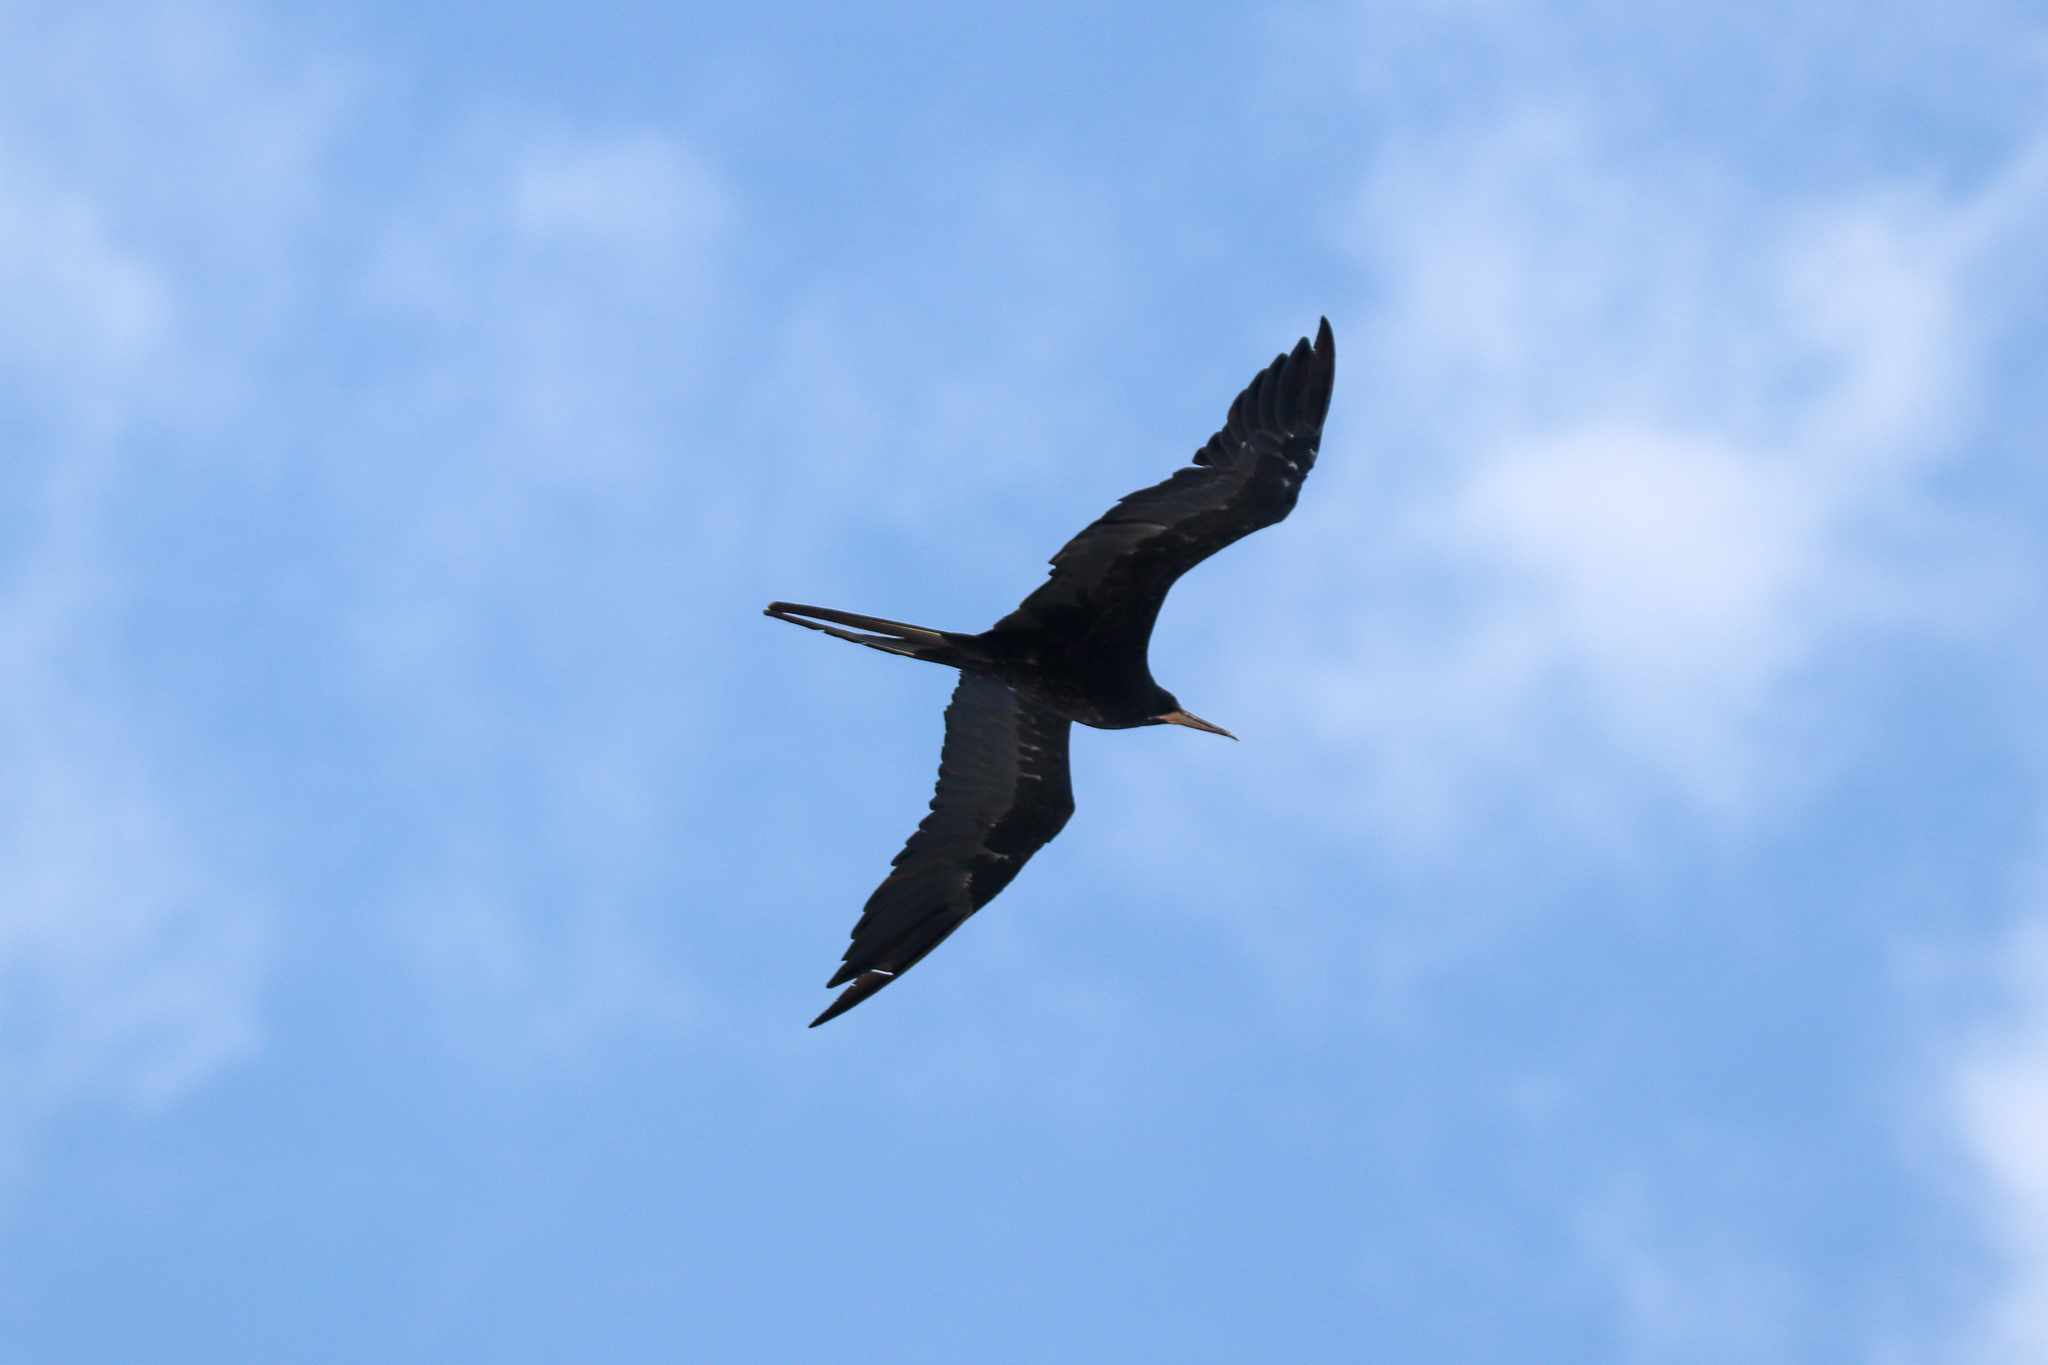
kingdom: Animalia
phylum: Chordata
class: Aves
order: Suliformes
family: Fregatidae
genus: Fregata
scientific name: Fregata magnificens
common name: Magnificent frigatebird
